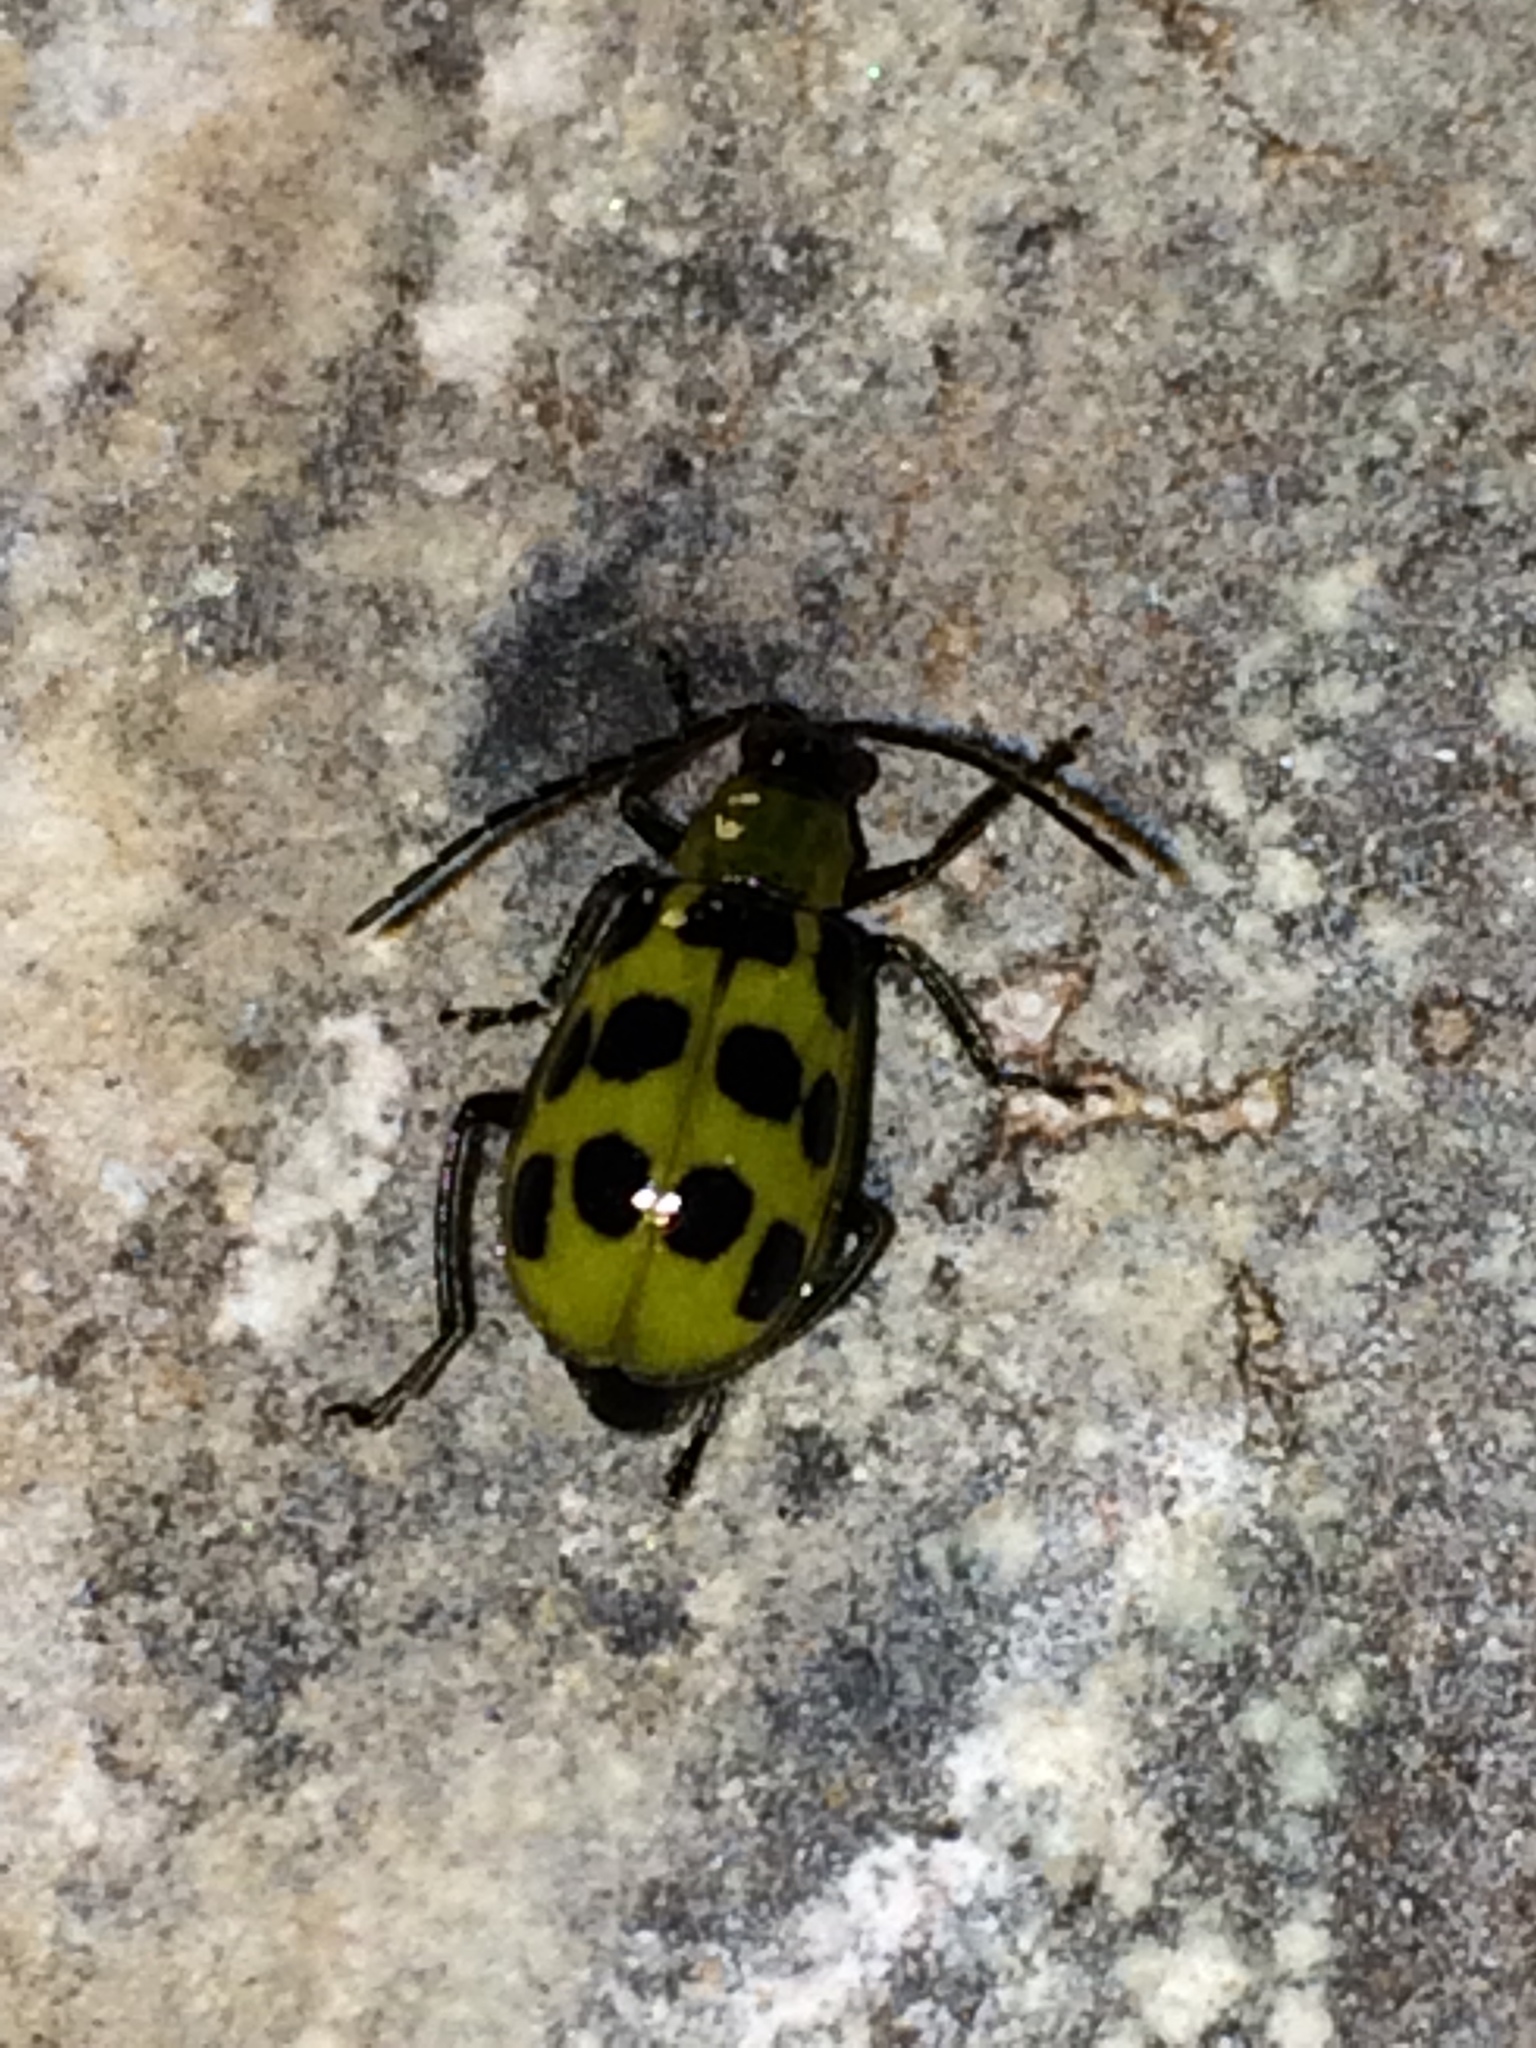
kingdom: Animalia
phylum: Arthropoda
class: Insecta
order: Coleoptera
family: Chrysomelidae
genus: Diabrotica
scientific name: Diabrotica undecimpunctata
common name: Spotted cucumber beetle
